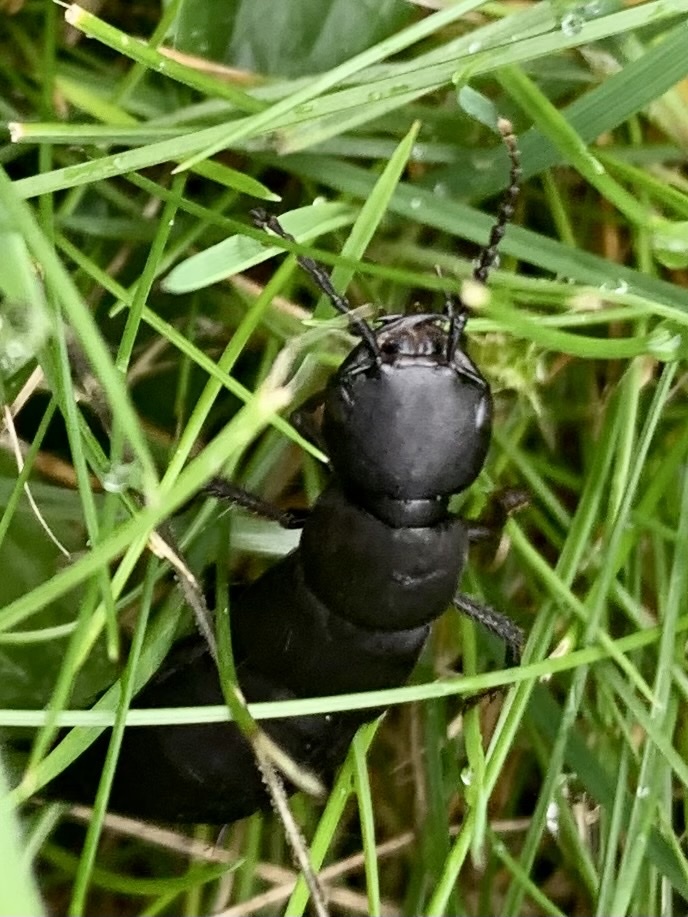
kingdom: Animalia
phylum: Arthropoda
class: Insecta
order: Coleoptera
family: Staphylinidae
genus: Ocypus
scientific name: Ocypus olens
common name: Devil's coach-horse
